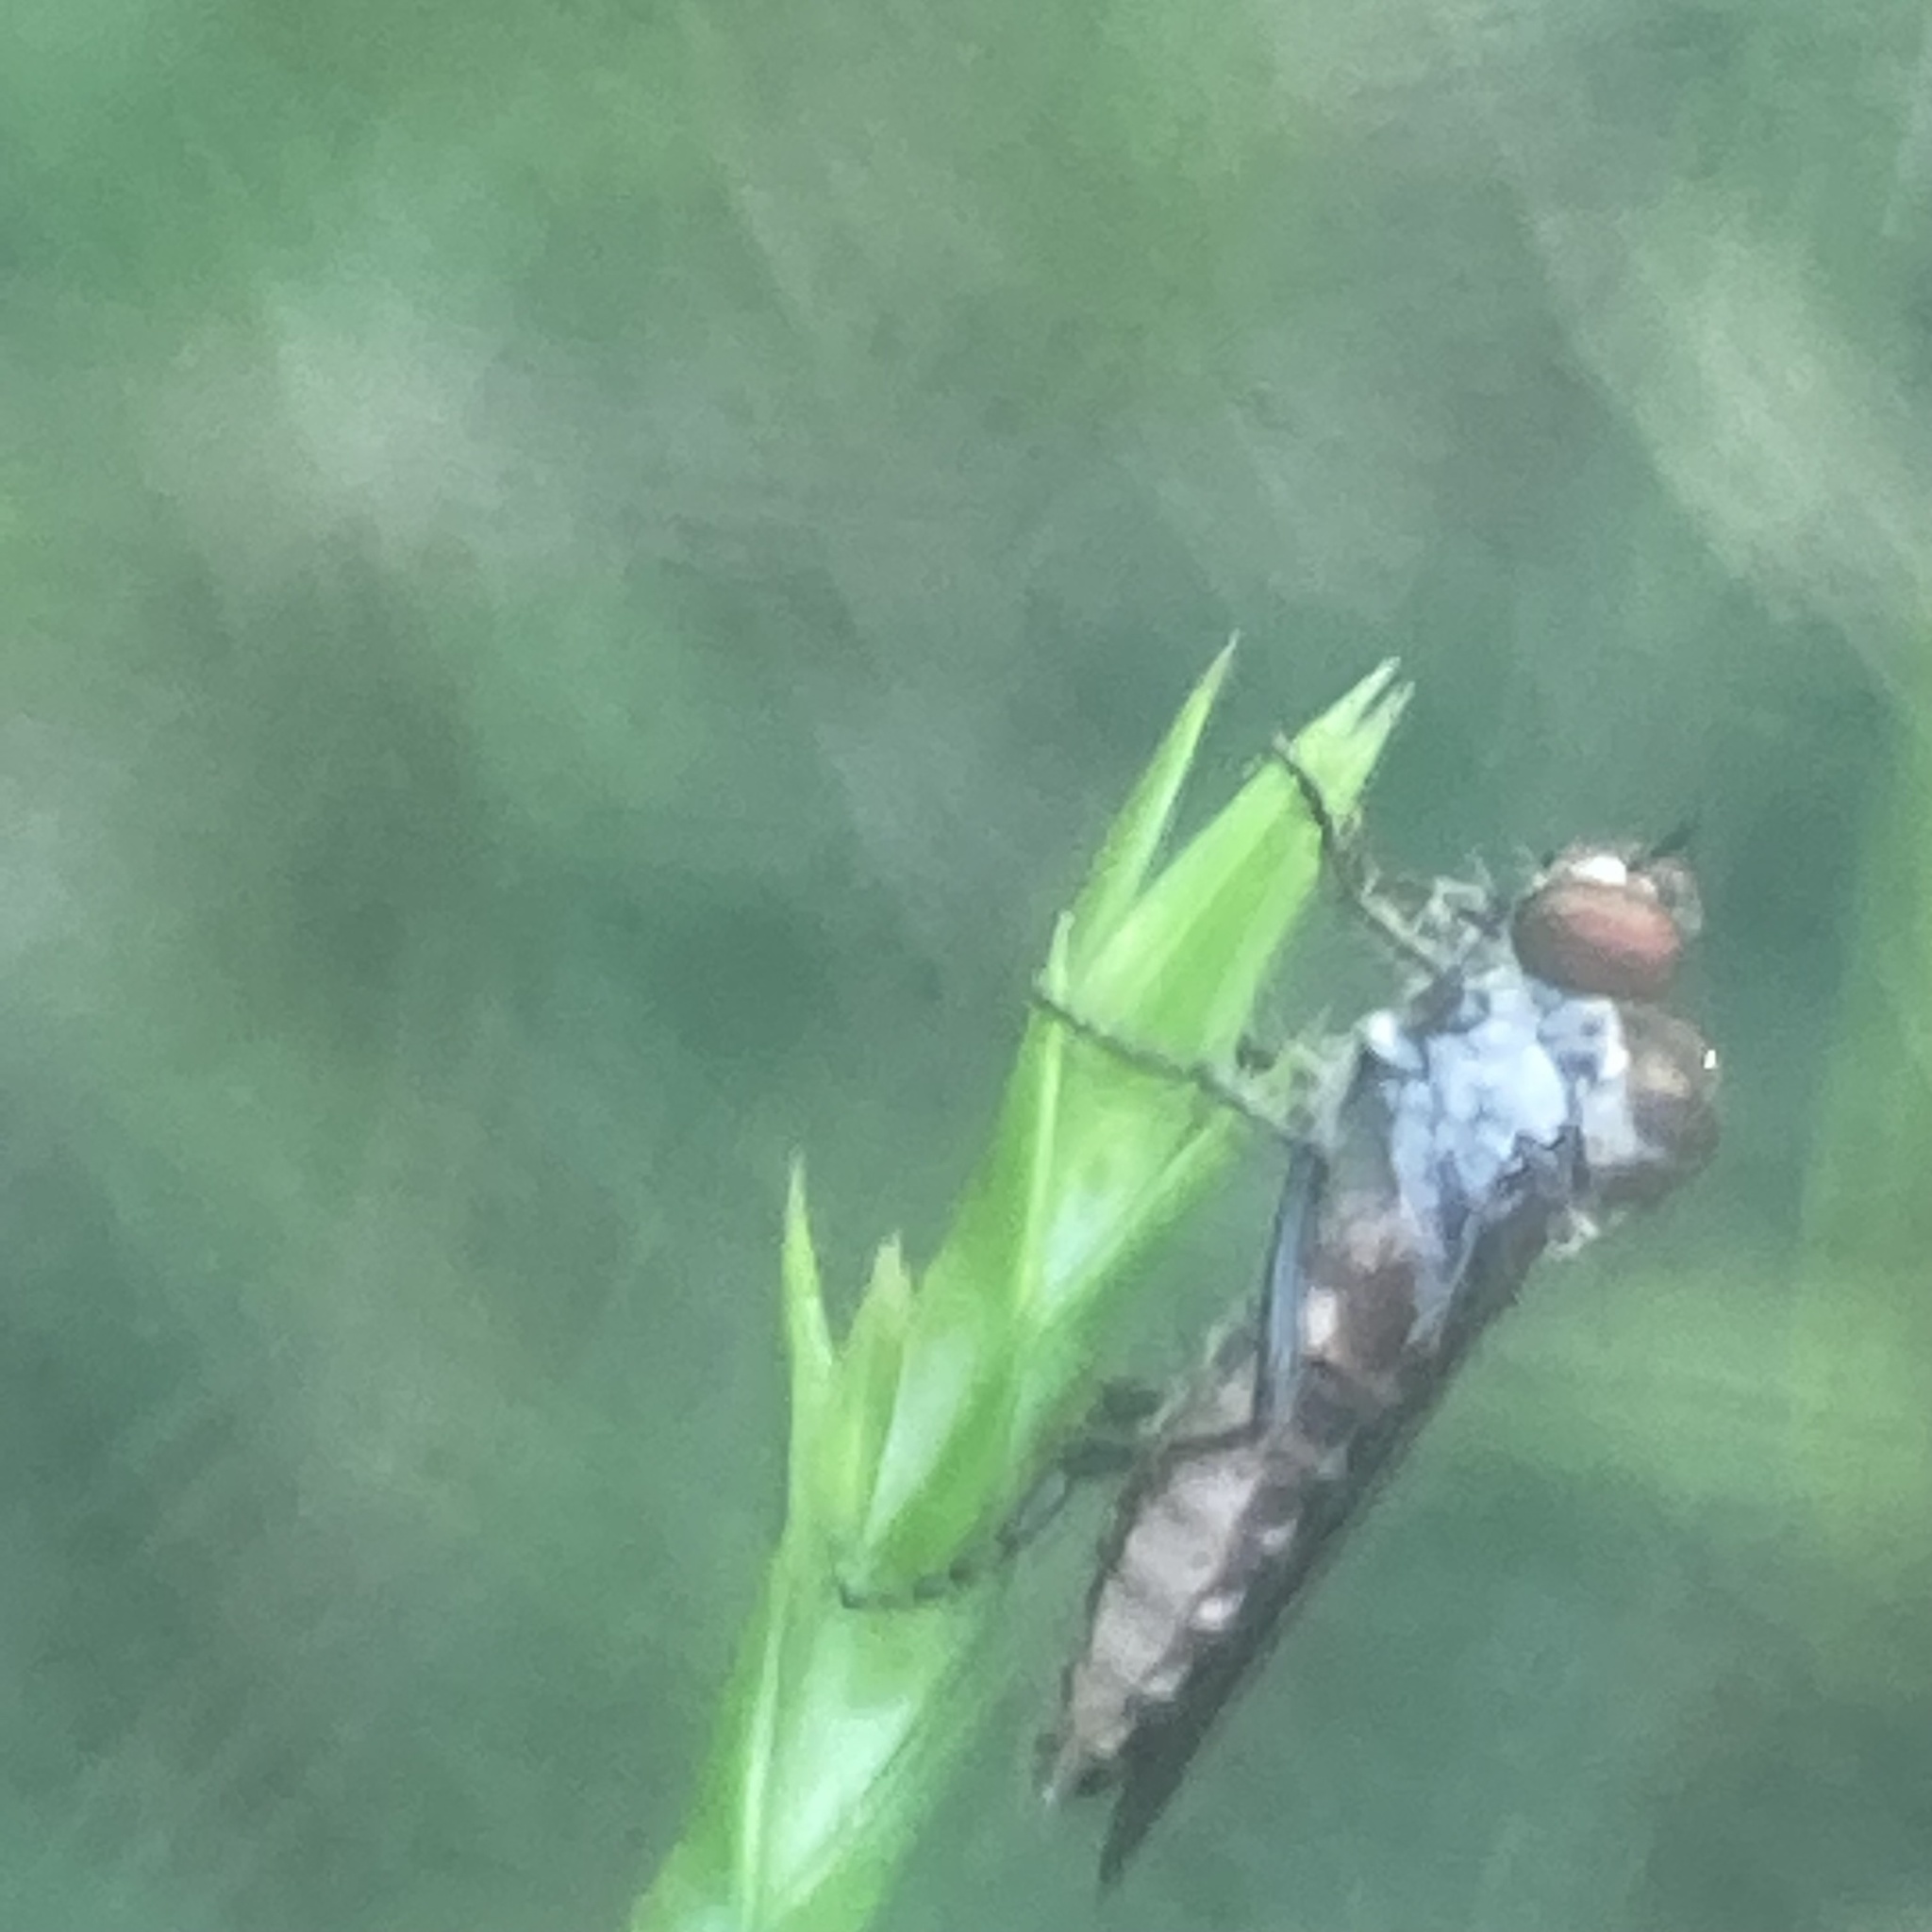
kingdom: Animalia
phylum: Arthropoda
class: Insecta
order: Diptera
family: Asilidae
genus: Holcocephala
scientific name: Holcocephala calva
